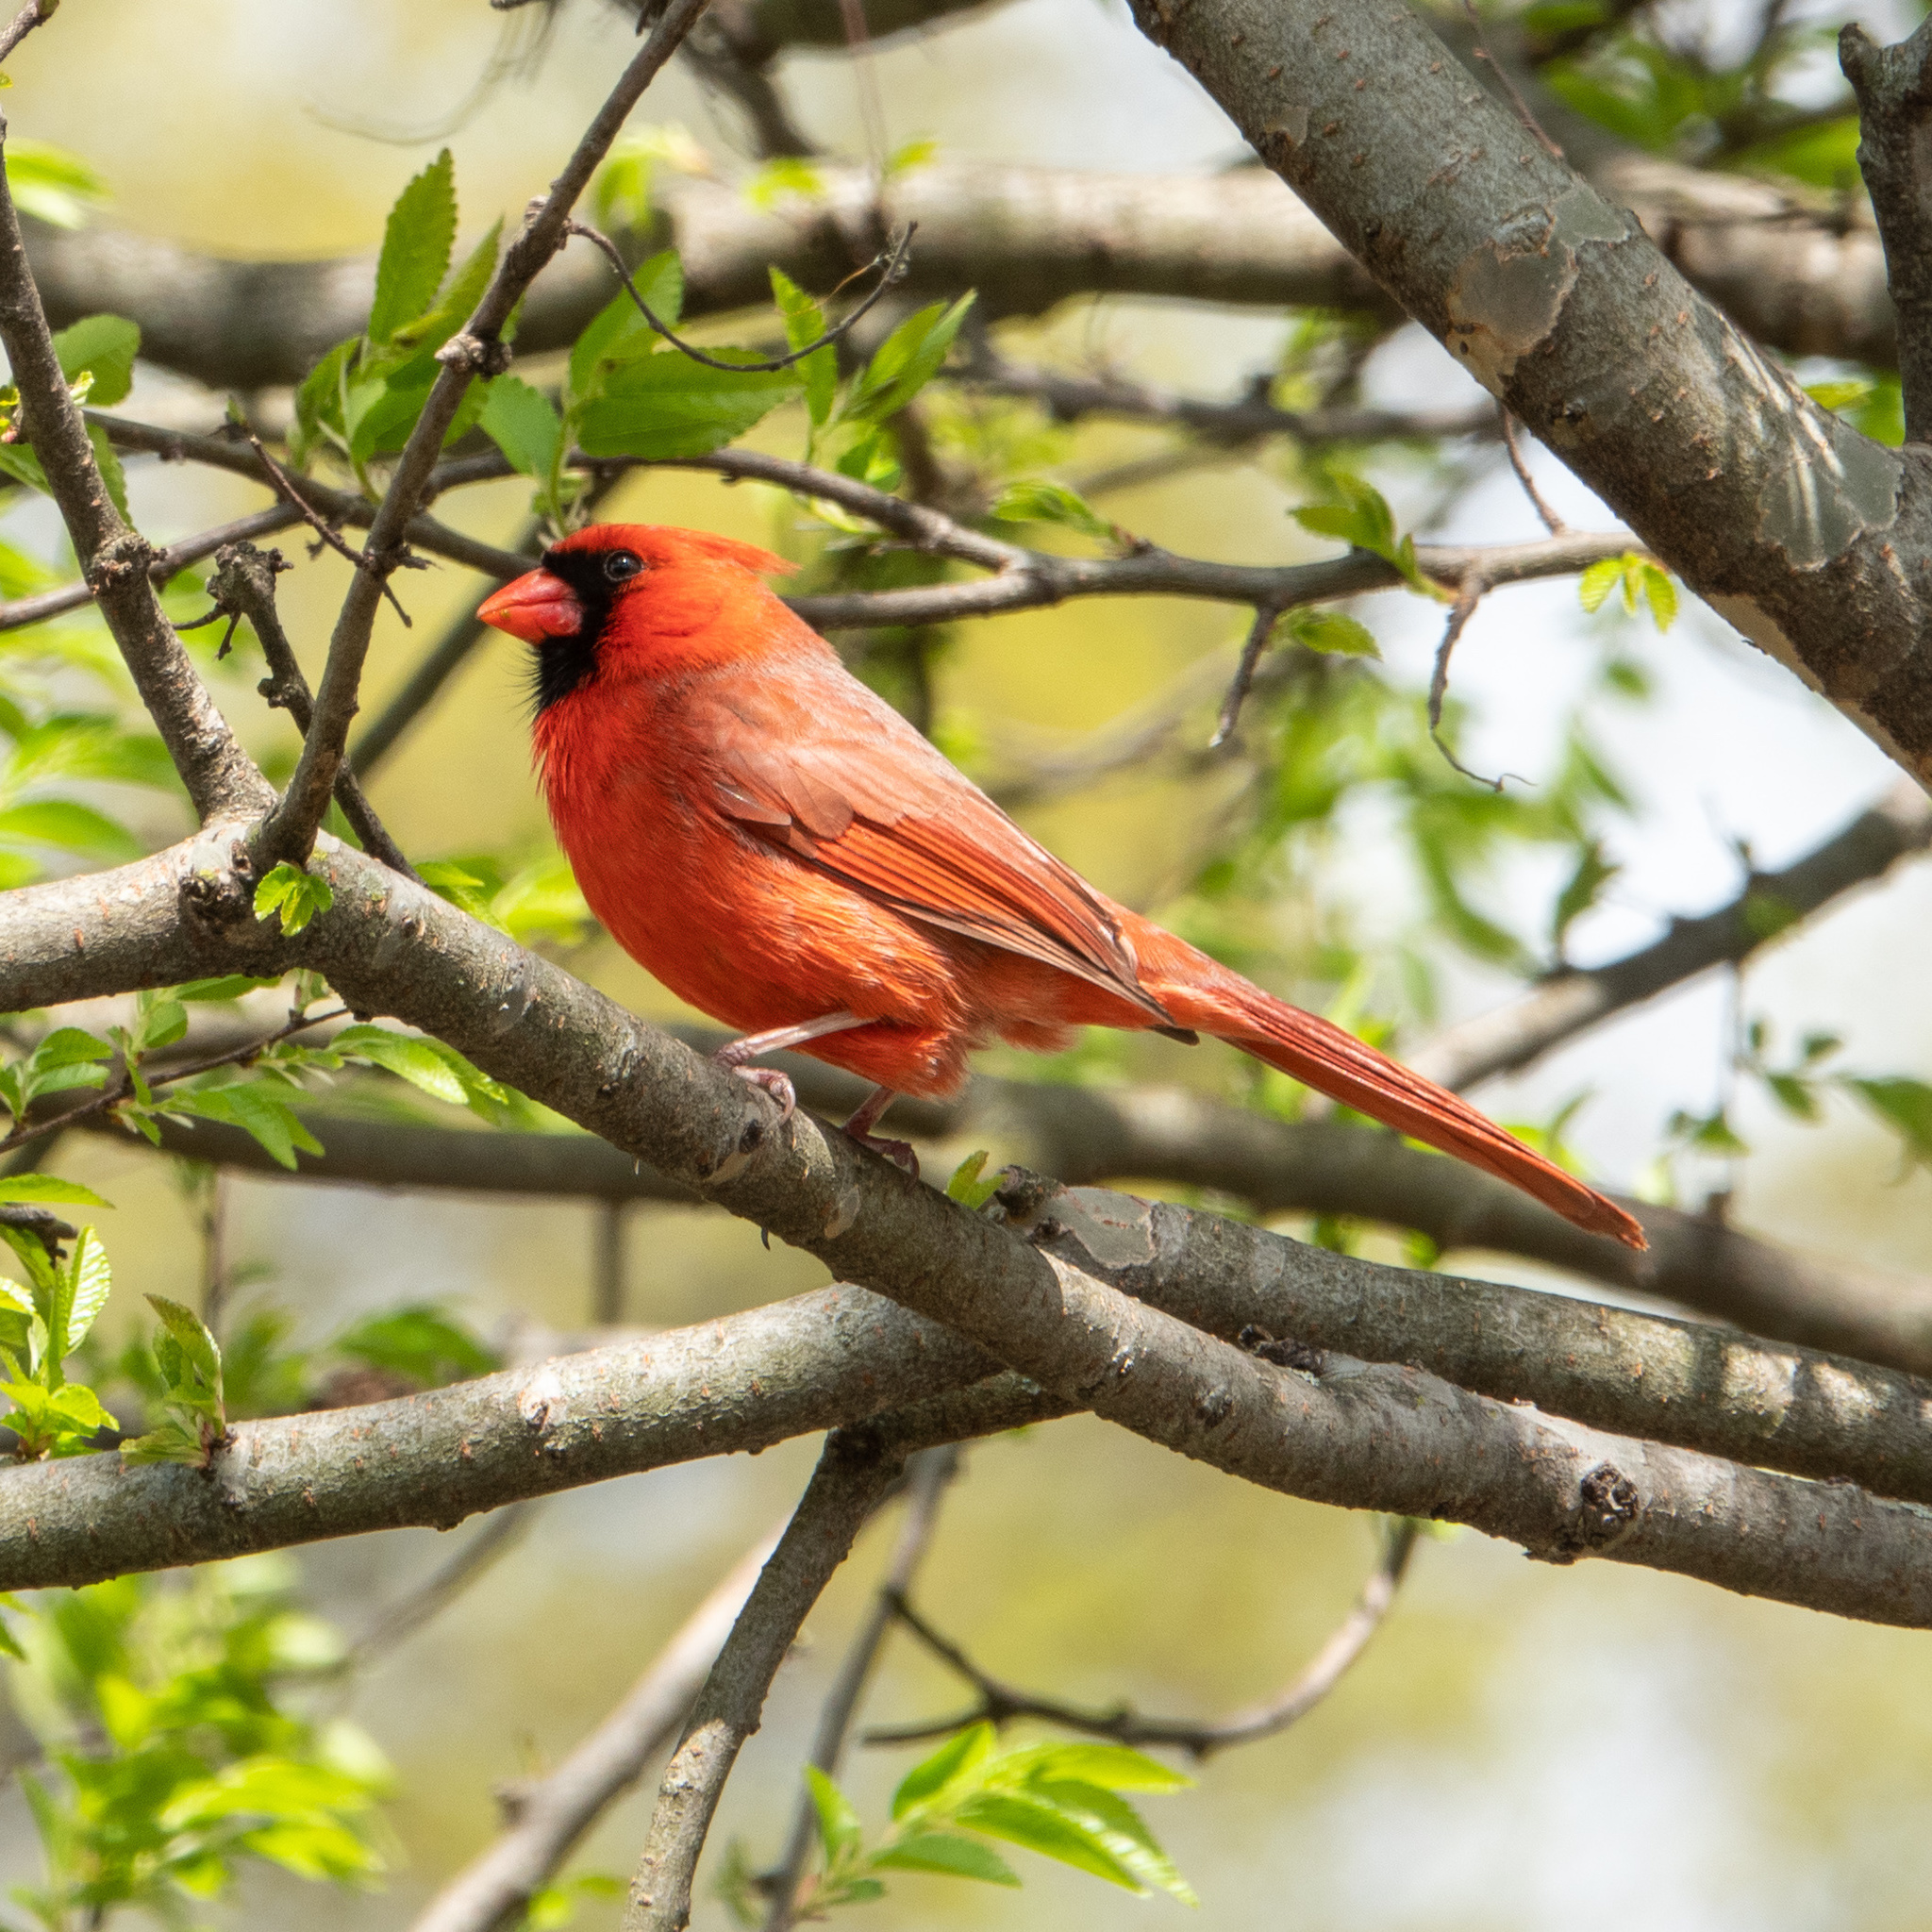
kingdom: Animalia
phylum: Chordata
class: Aves
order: Passeriformes
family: Cardinalidae
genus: Cardinalis
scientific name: Cardinalis cardinalis
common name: Northern cardinal
